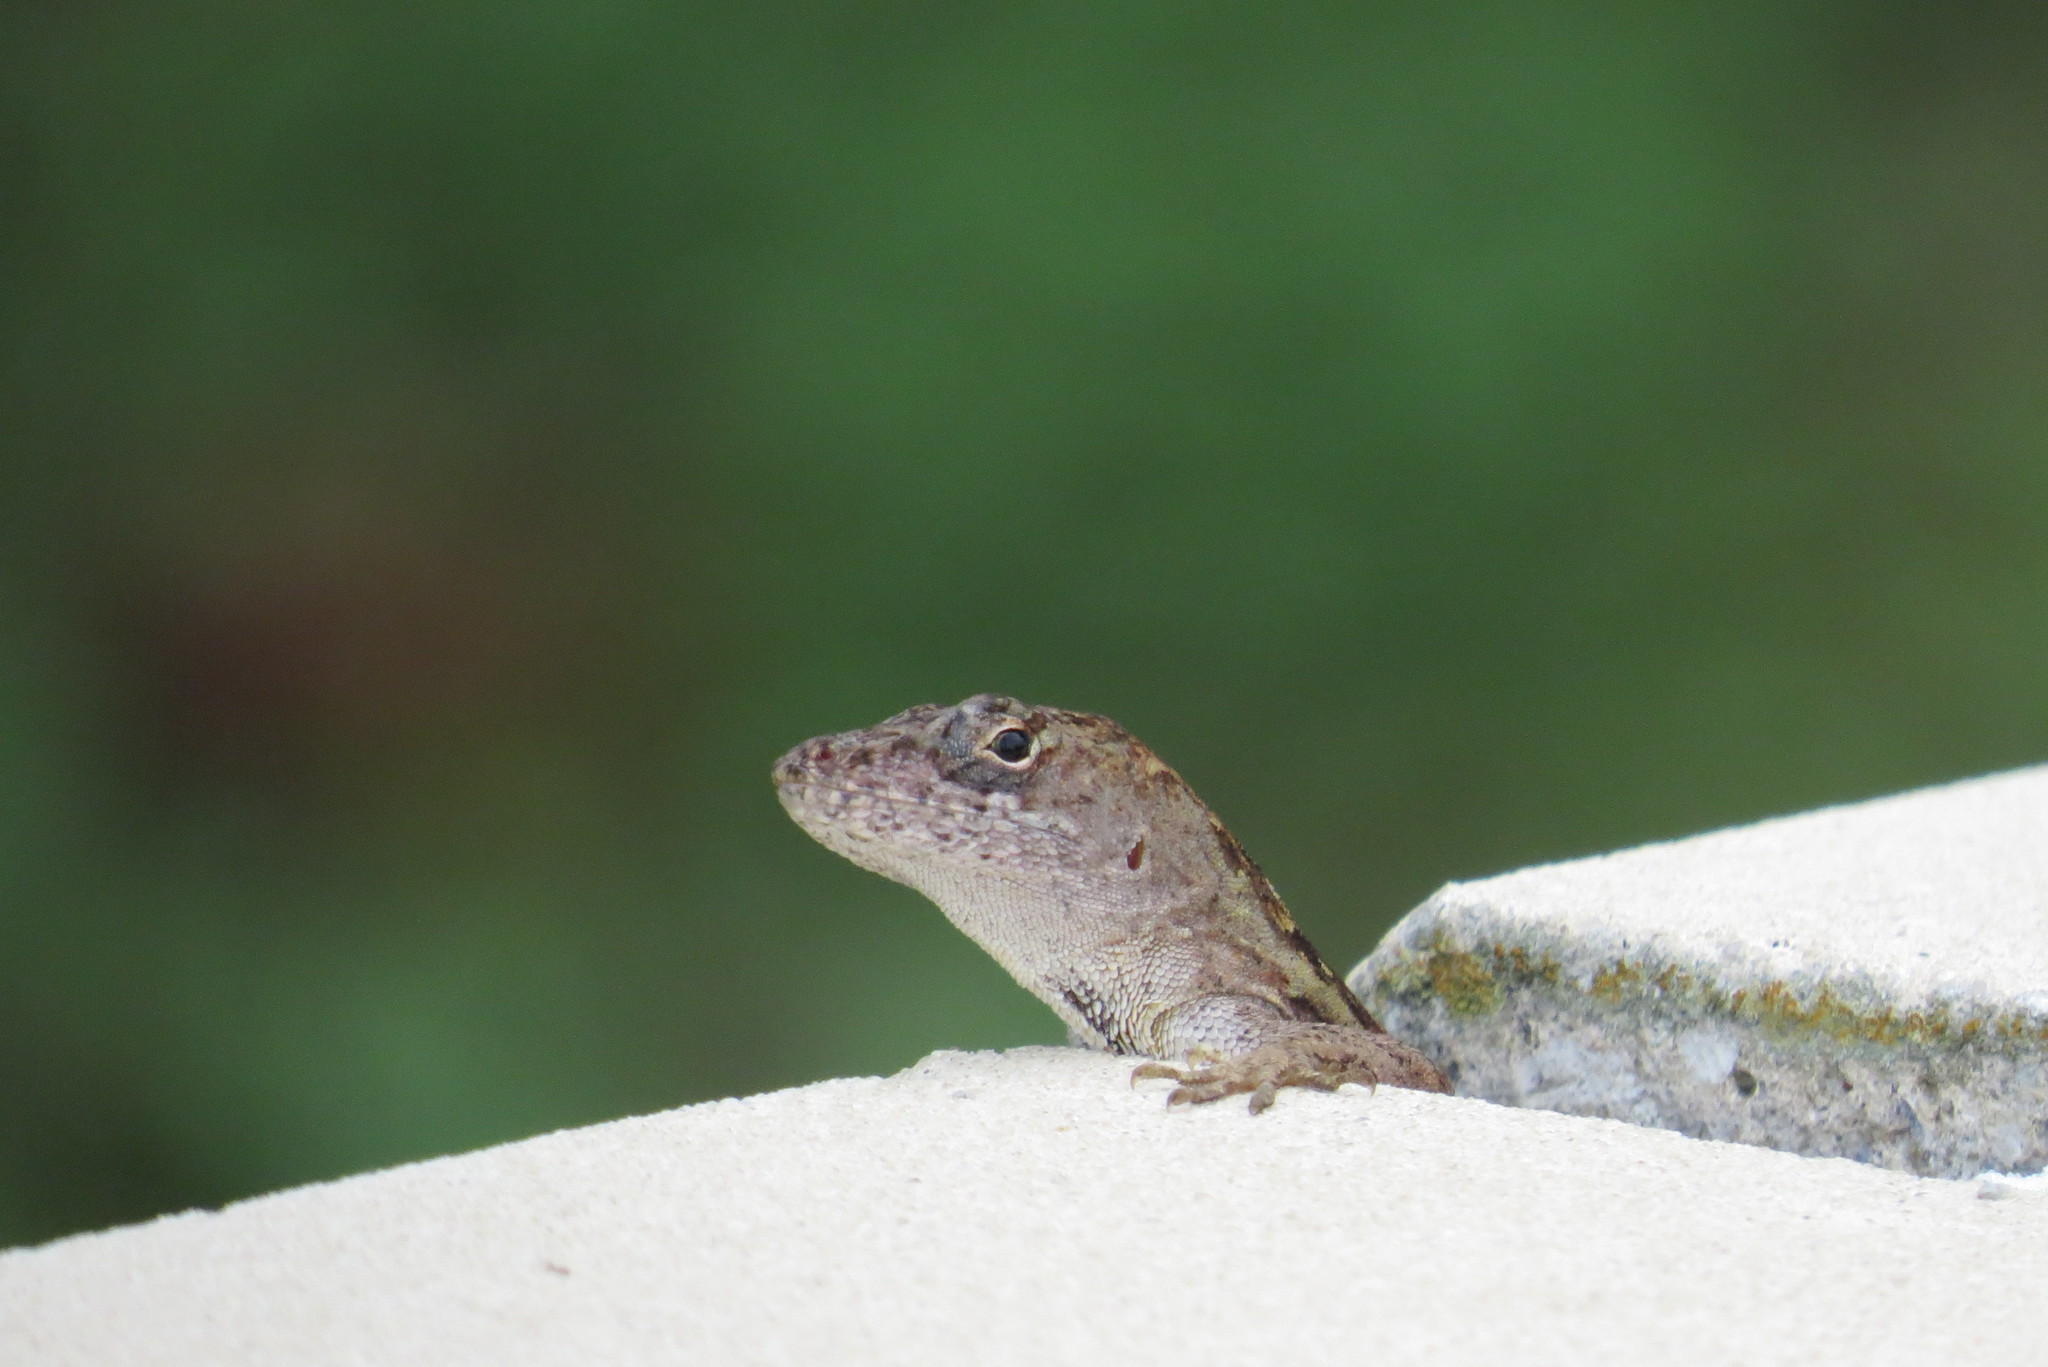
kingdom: Animalia
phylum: Chordata
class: Squamata
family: Dactyloidae
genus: Anolis
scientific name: Anolis sagrei
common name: Brown anole
